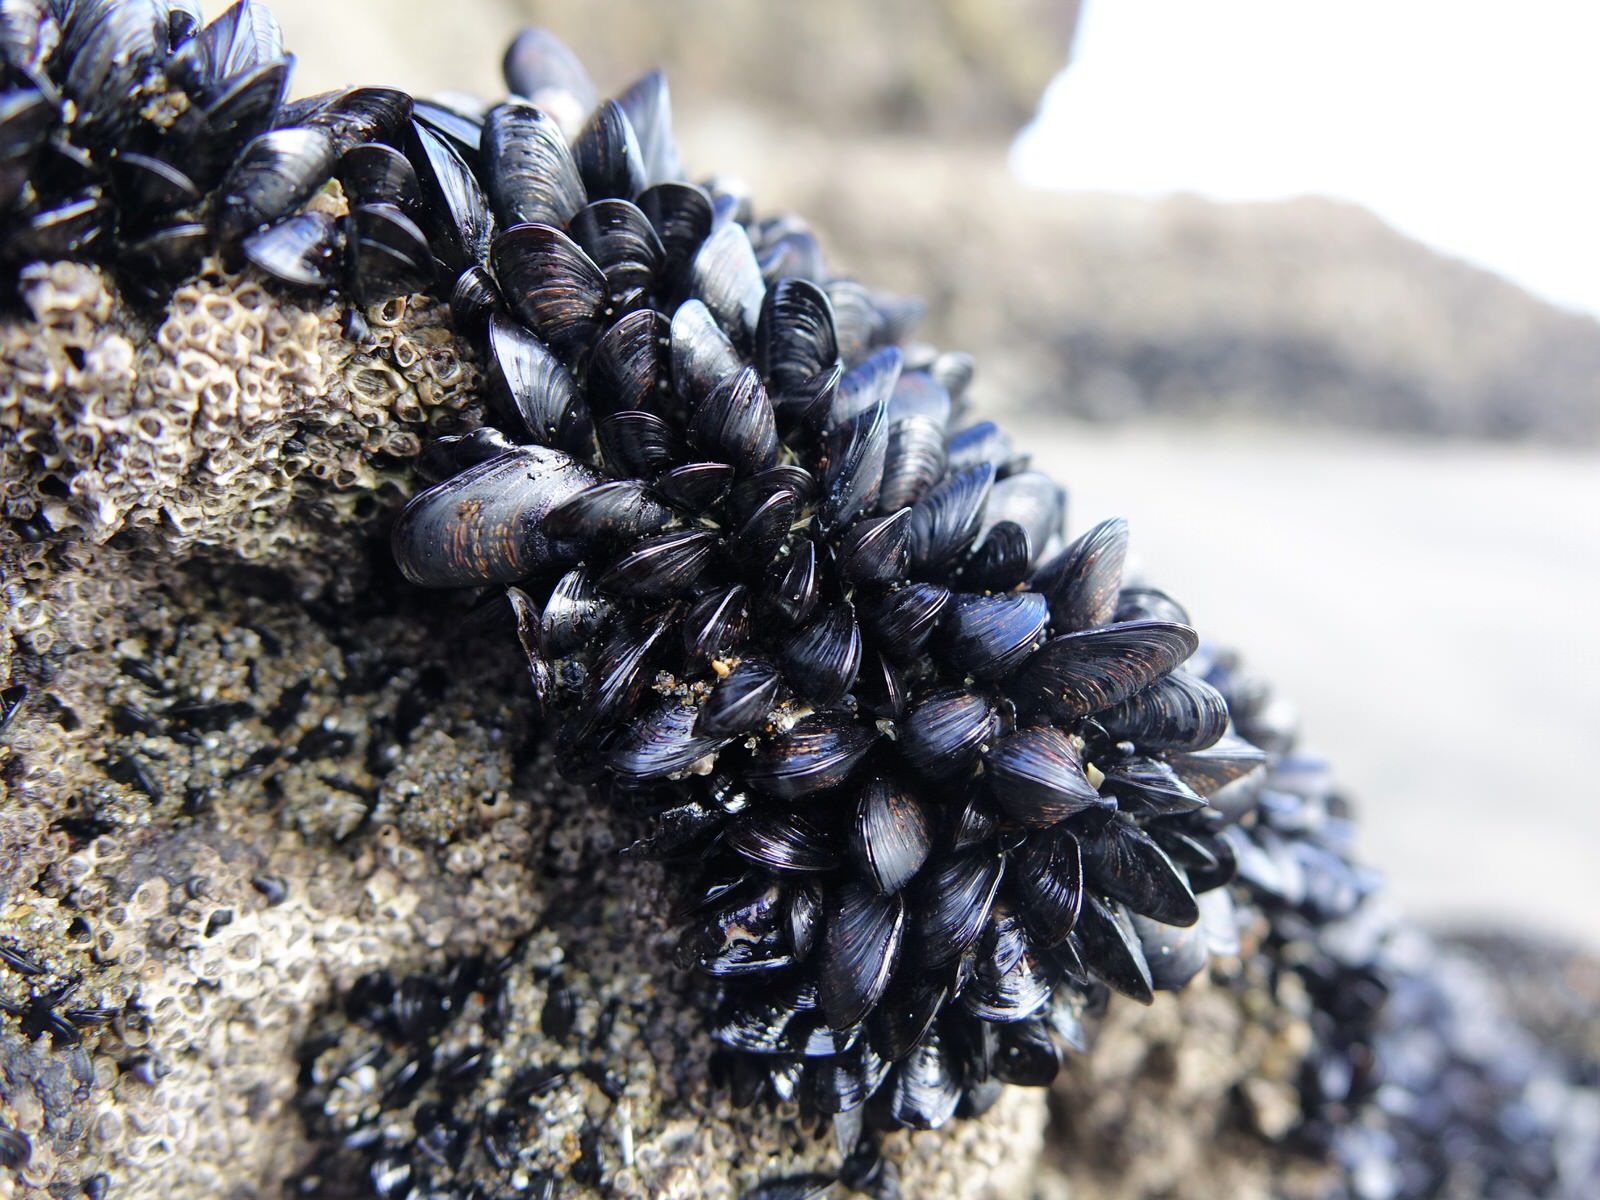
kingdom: Animalia
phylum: Mollusca
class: Bivalvia
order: Mytilida
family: Mytilidae
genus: Xenostrobus
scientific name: Xenostrobus neozelanicus
